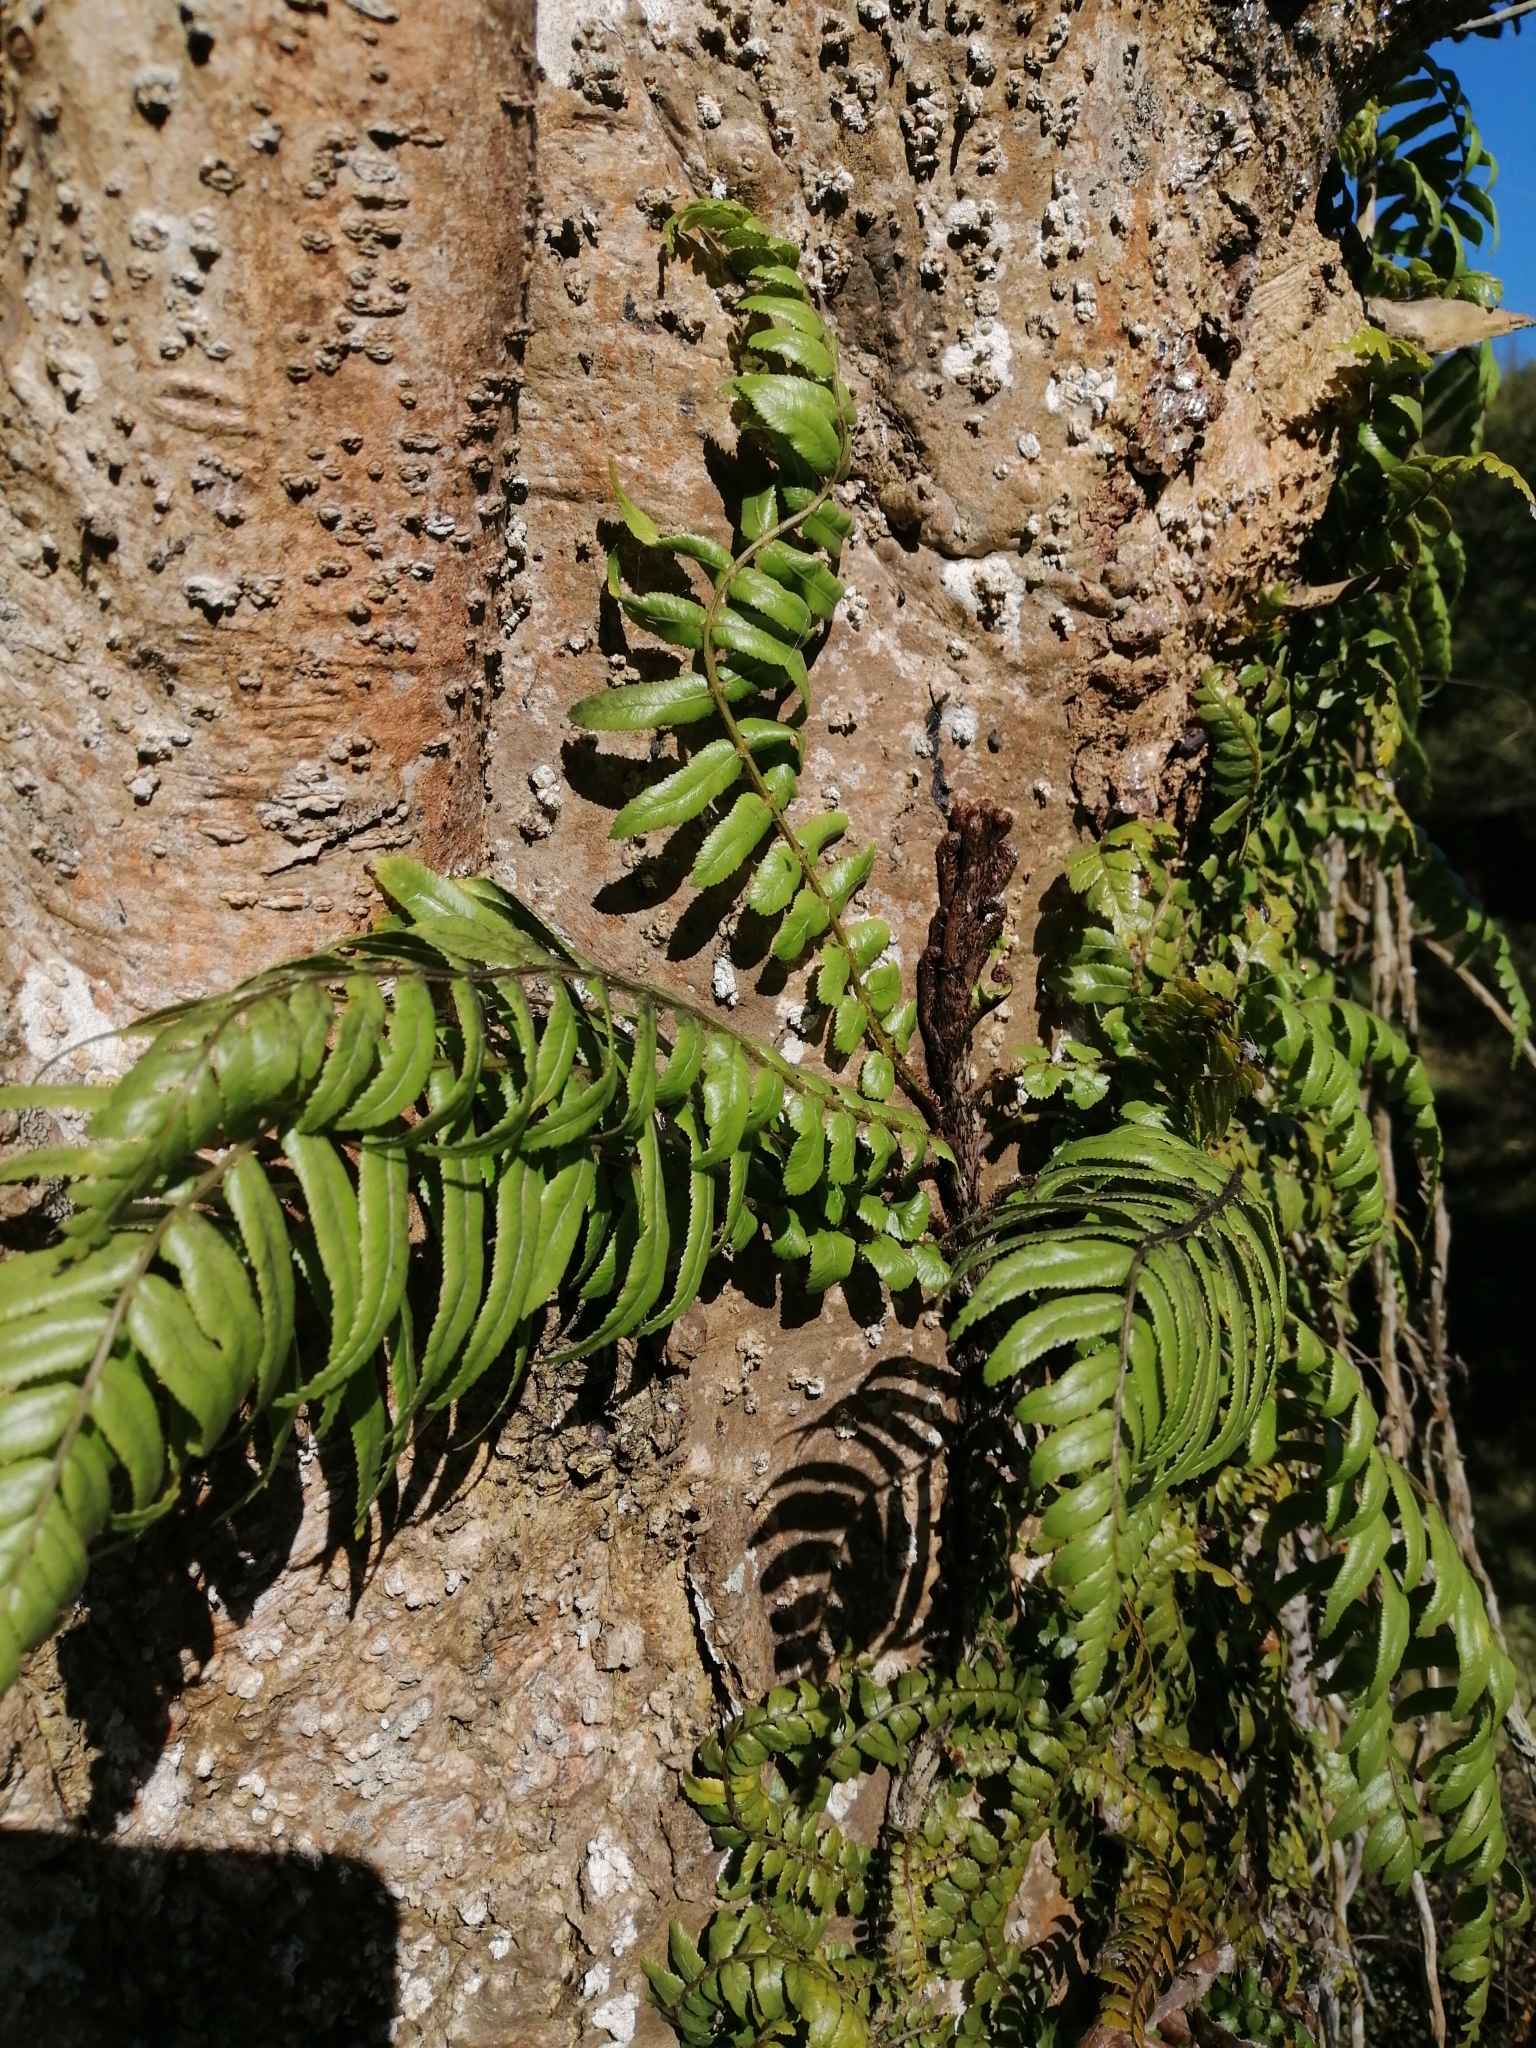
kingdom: Plantae
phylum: Tracheophyta
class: Polypodiopsida
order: Polypodiales
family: Blechnaceae
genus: Icarus
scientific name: Icarus filiformis
